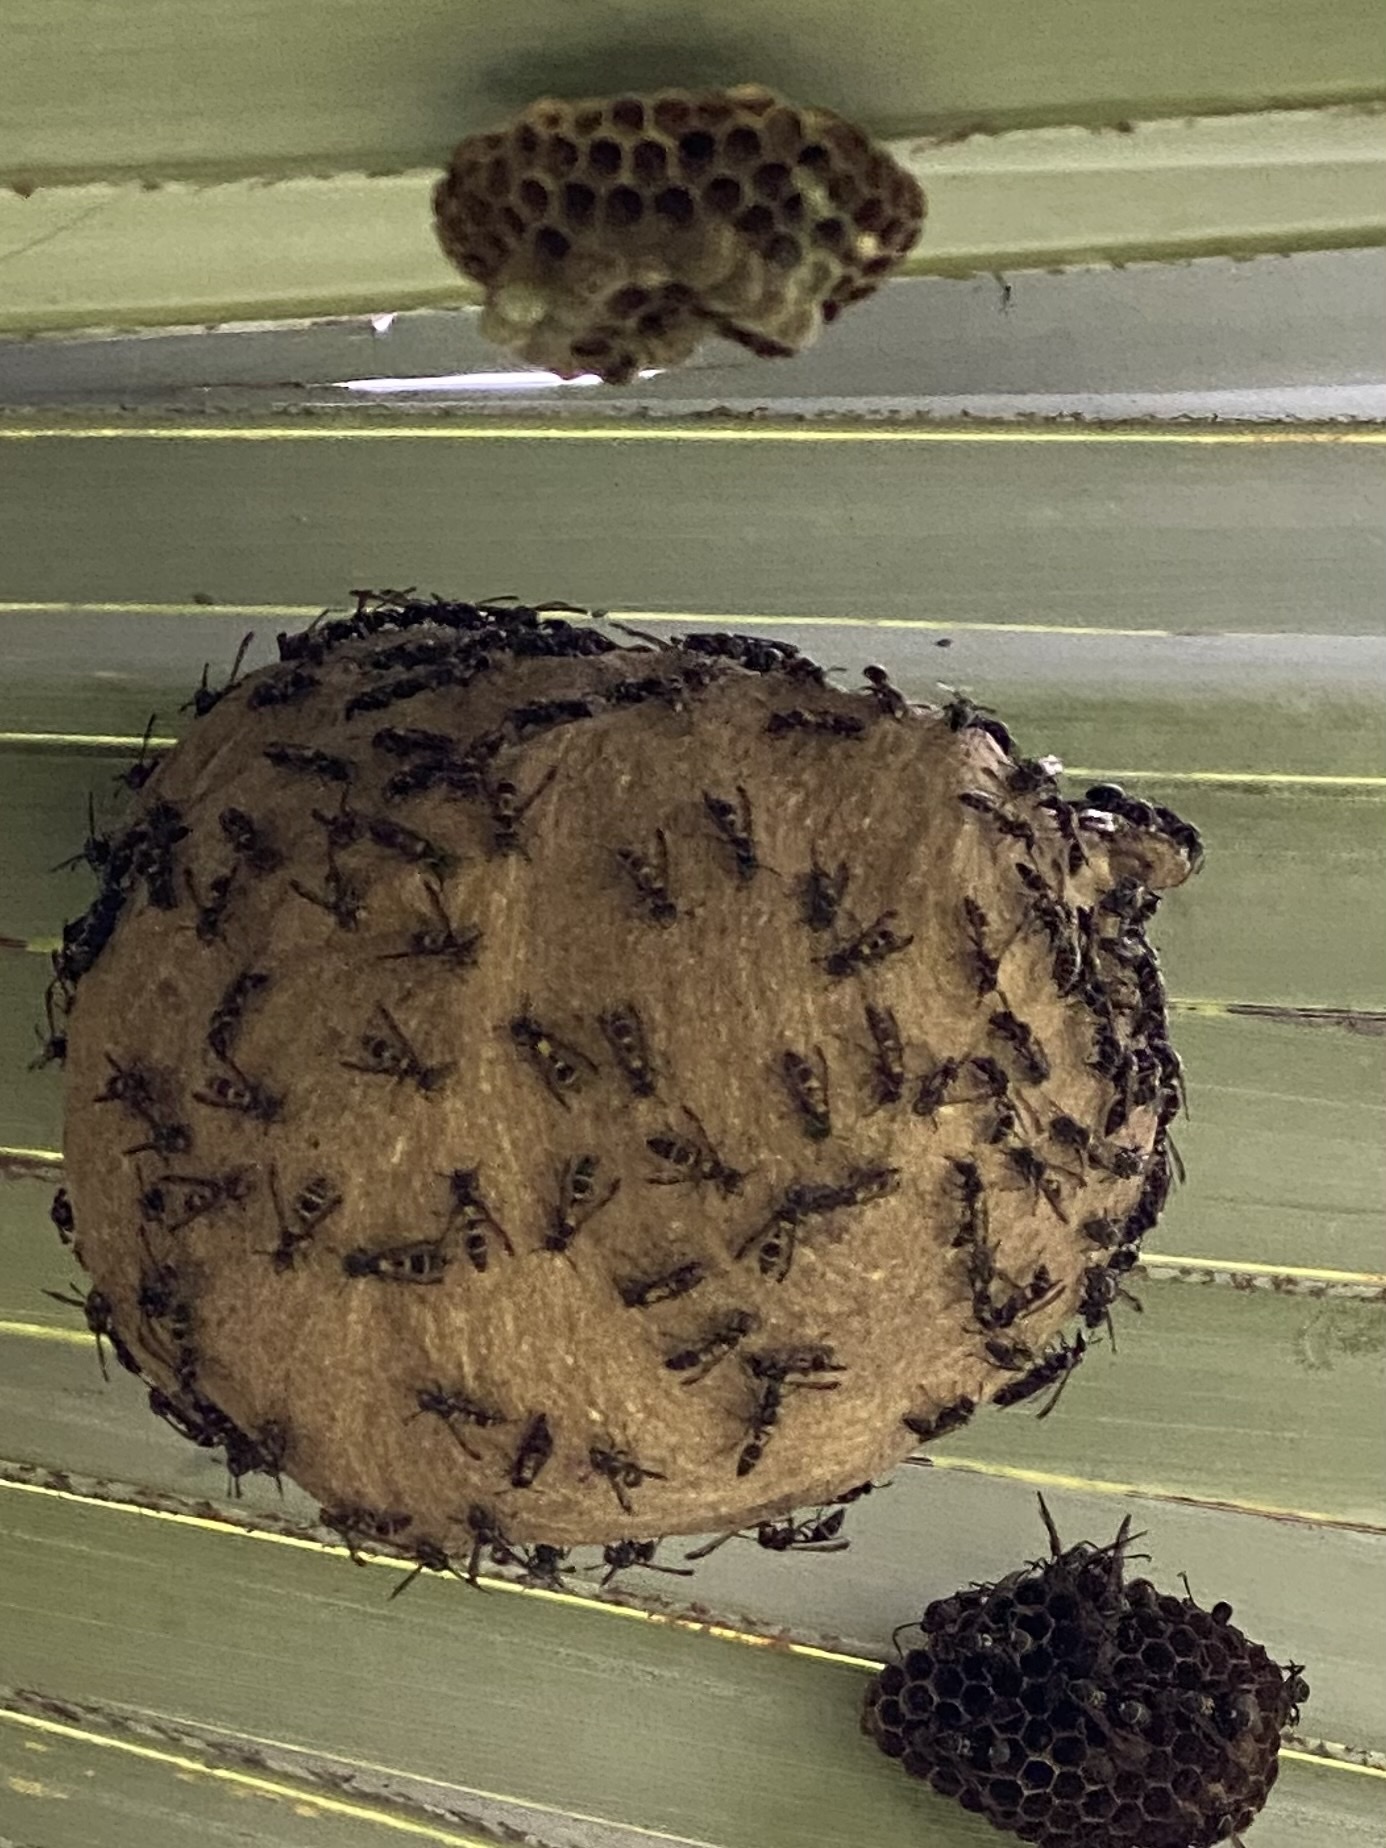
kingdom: Animalia
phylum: Arthropoda
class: Insecta
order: Hymenoptera
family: Eumenidae
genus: Polybia
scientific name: Polybia occidentalis
